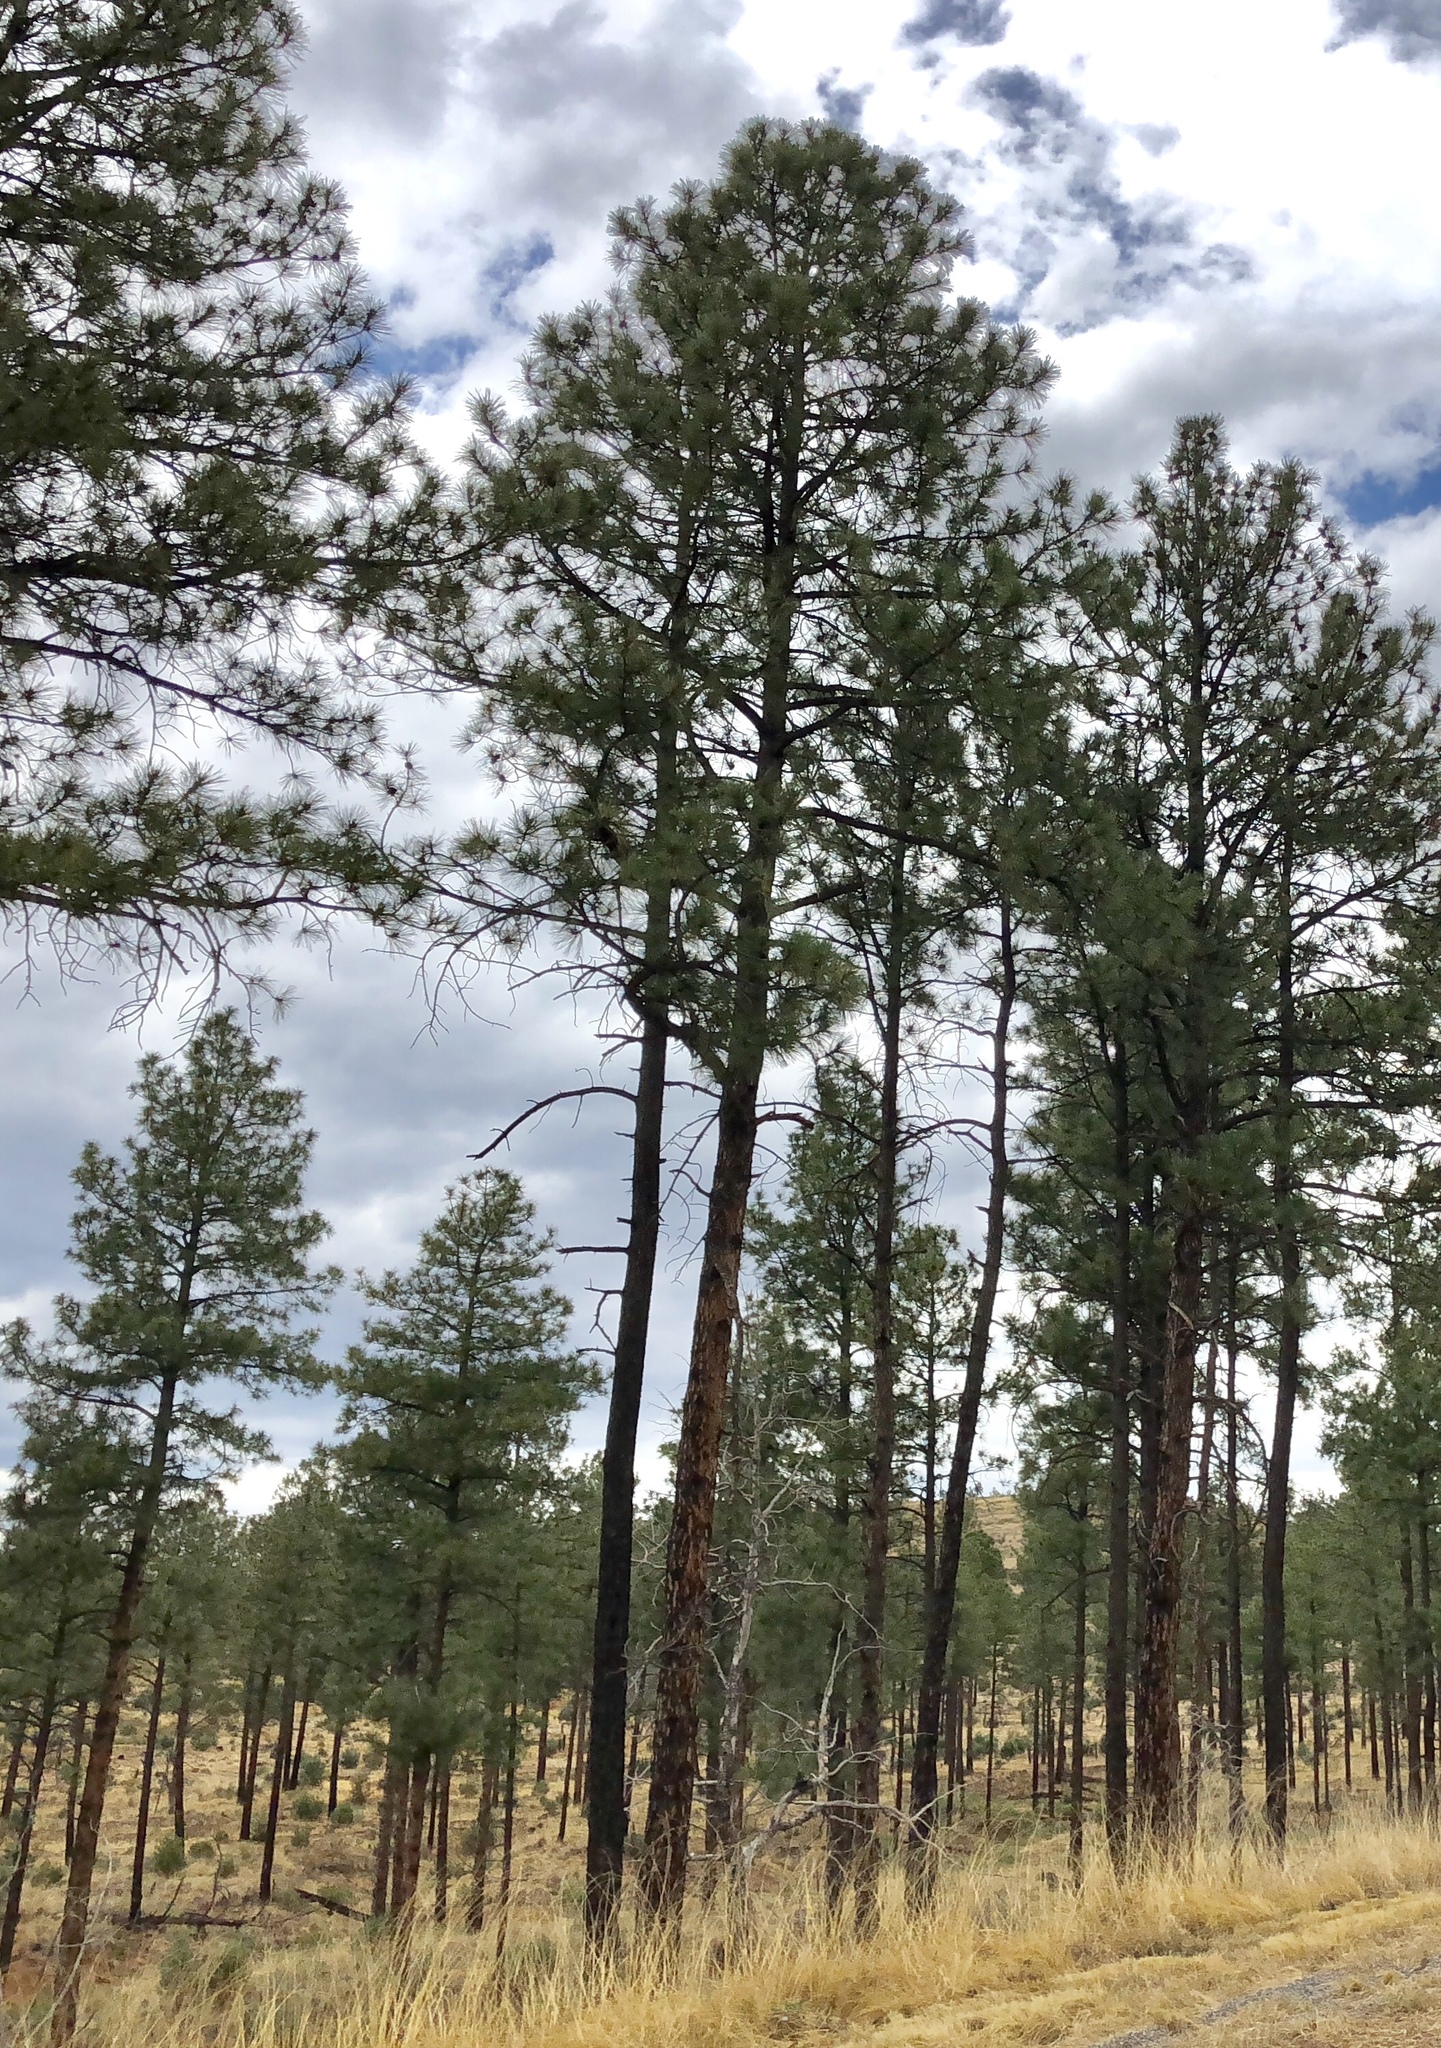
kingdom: Plantae
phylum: Tracheophyta
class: Pinopsida
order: Pinales
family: Pinaceae
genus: Pinus
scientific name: Pinus ponderosa
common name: Western yellow-pine
